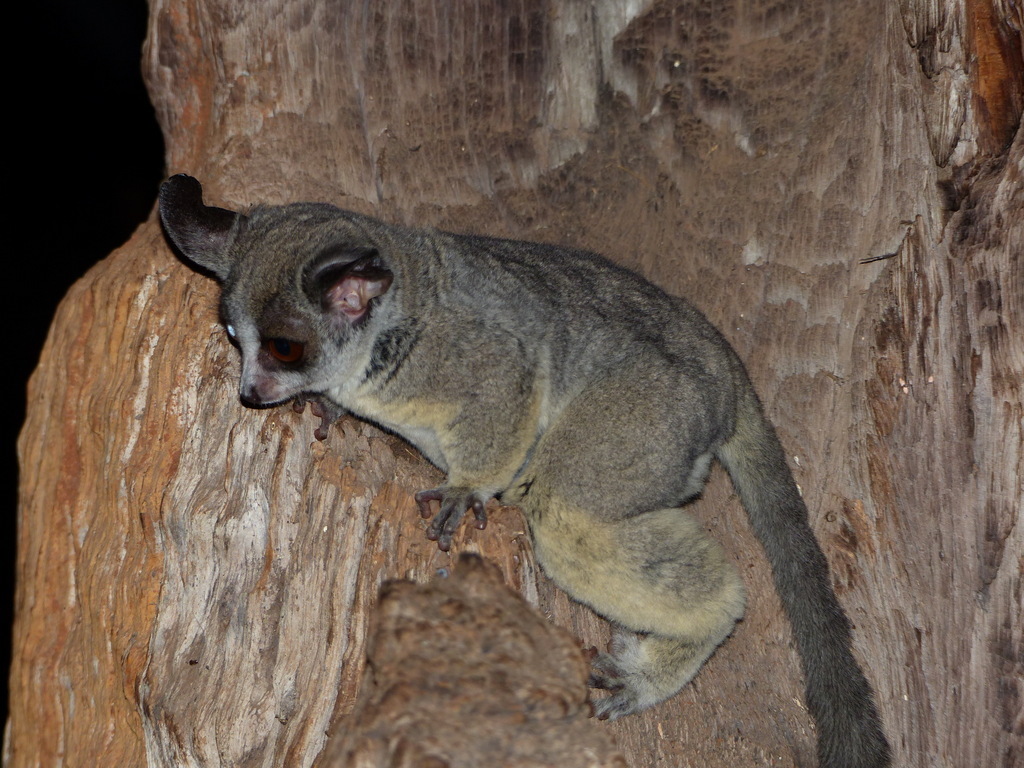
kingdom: Animalia
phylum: Chordata
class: Mammalia
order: Primates
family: Galagidae
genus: Galago
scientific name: Galago moholi
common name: Moholi bushbaby
